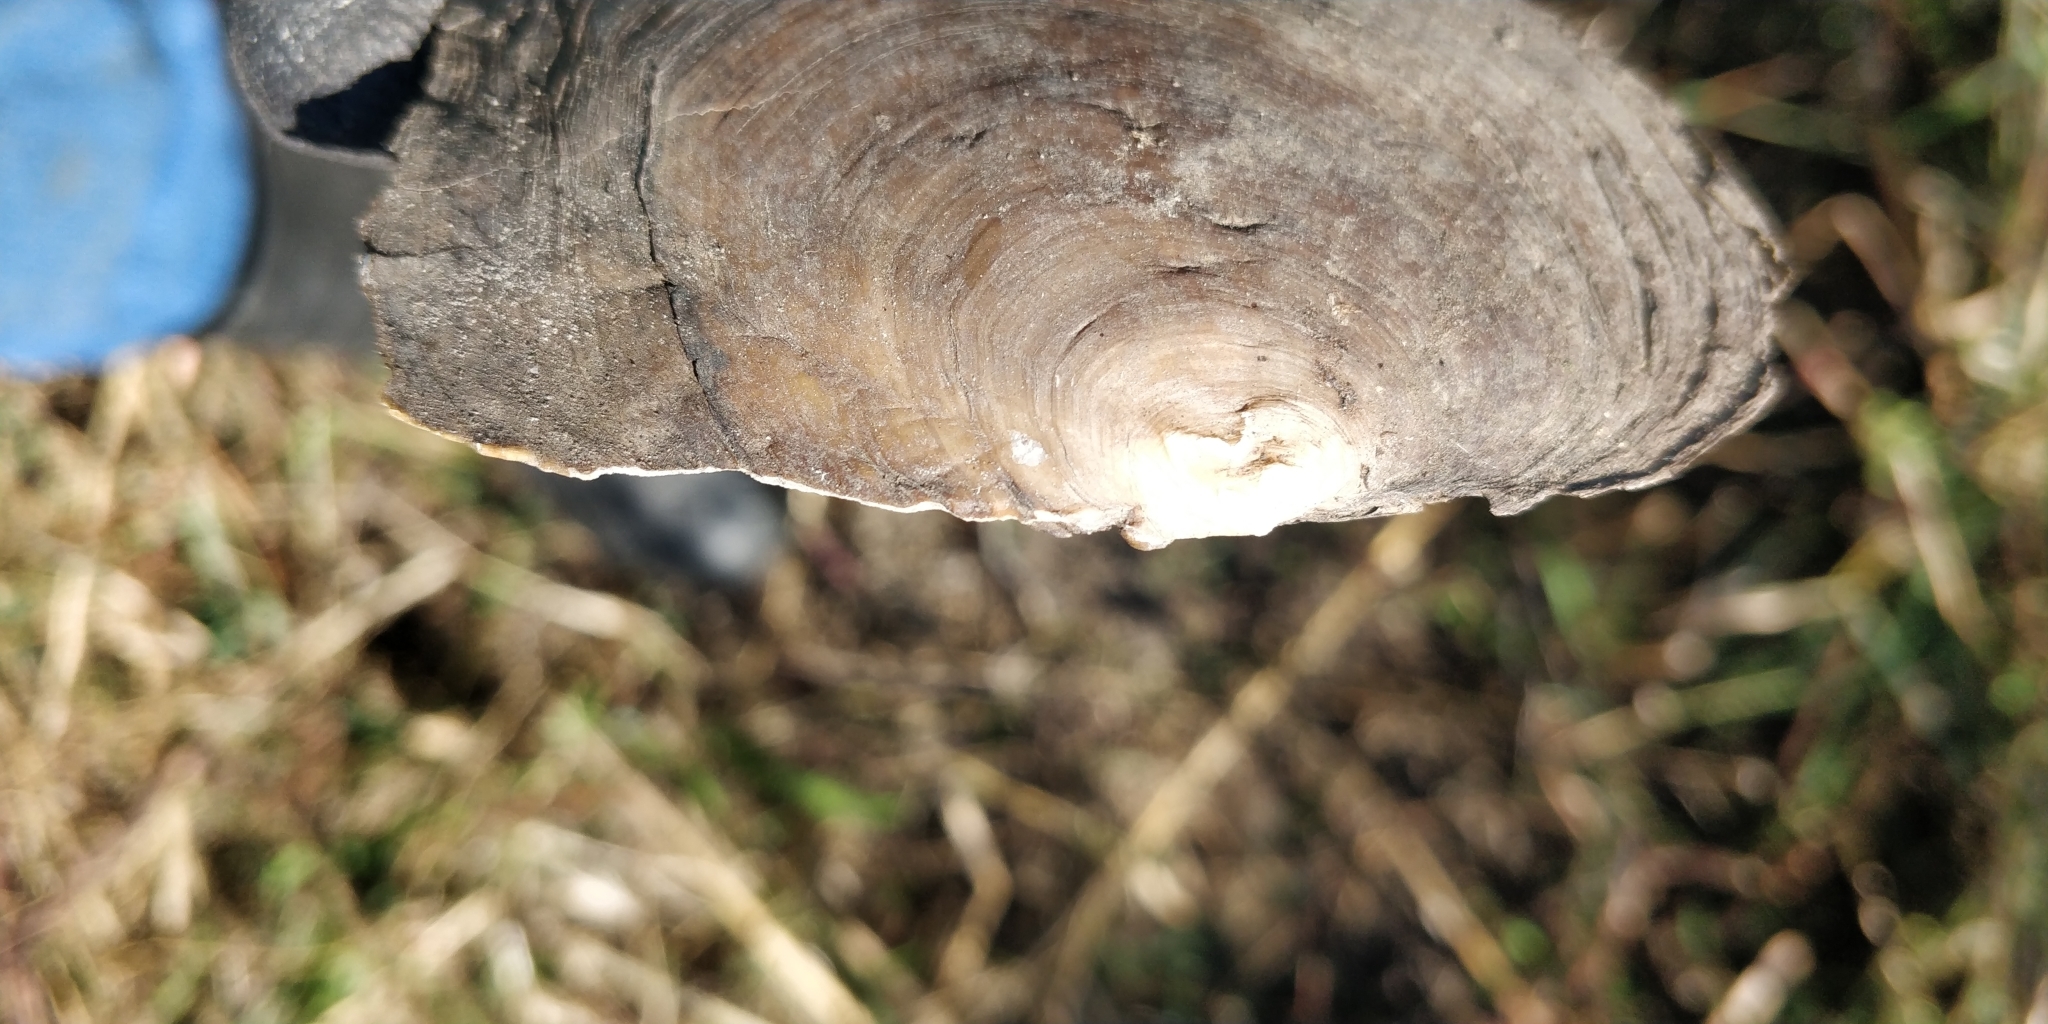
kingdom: Animalia
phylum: Mollusca
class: Bivalvia
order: Unionida
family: Unionidae
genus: Lasmigona
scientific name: Lasmigona complanata
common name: White heelsplitter
